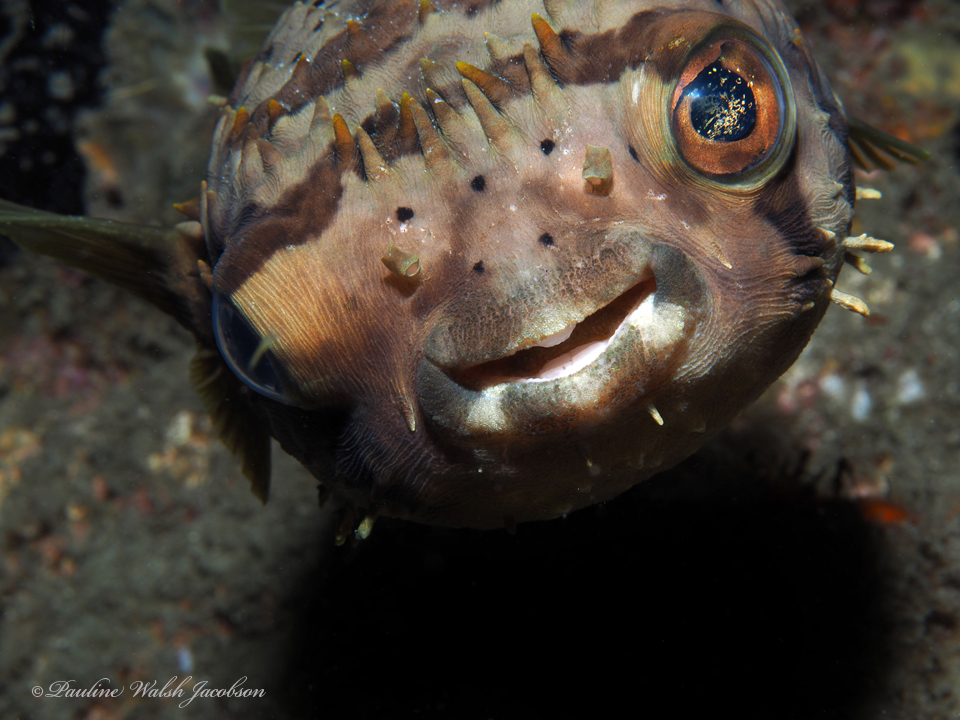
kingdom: Animalia
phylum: Chordata
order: Tetraodontiformes
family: Diodontidae
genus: Diodon
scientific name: Diodon holocanthus
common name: Balloonfish
